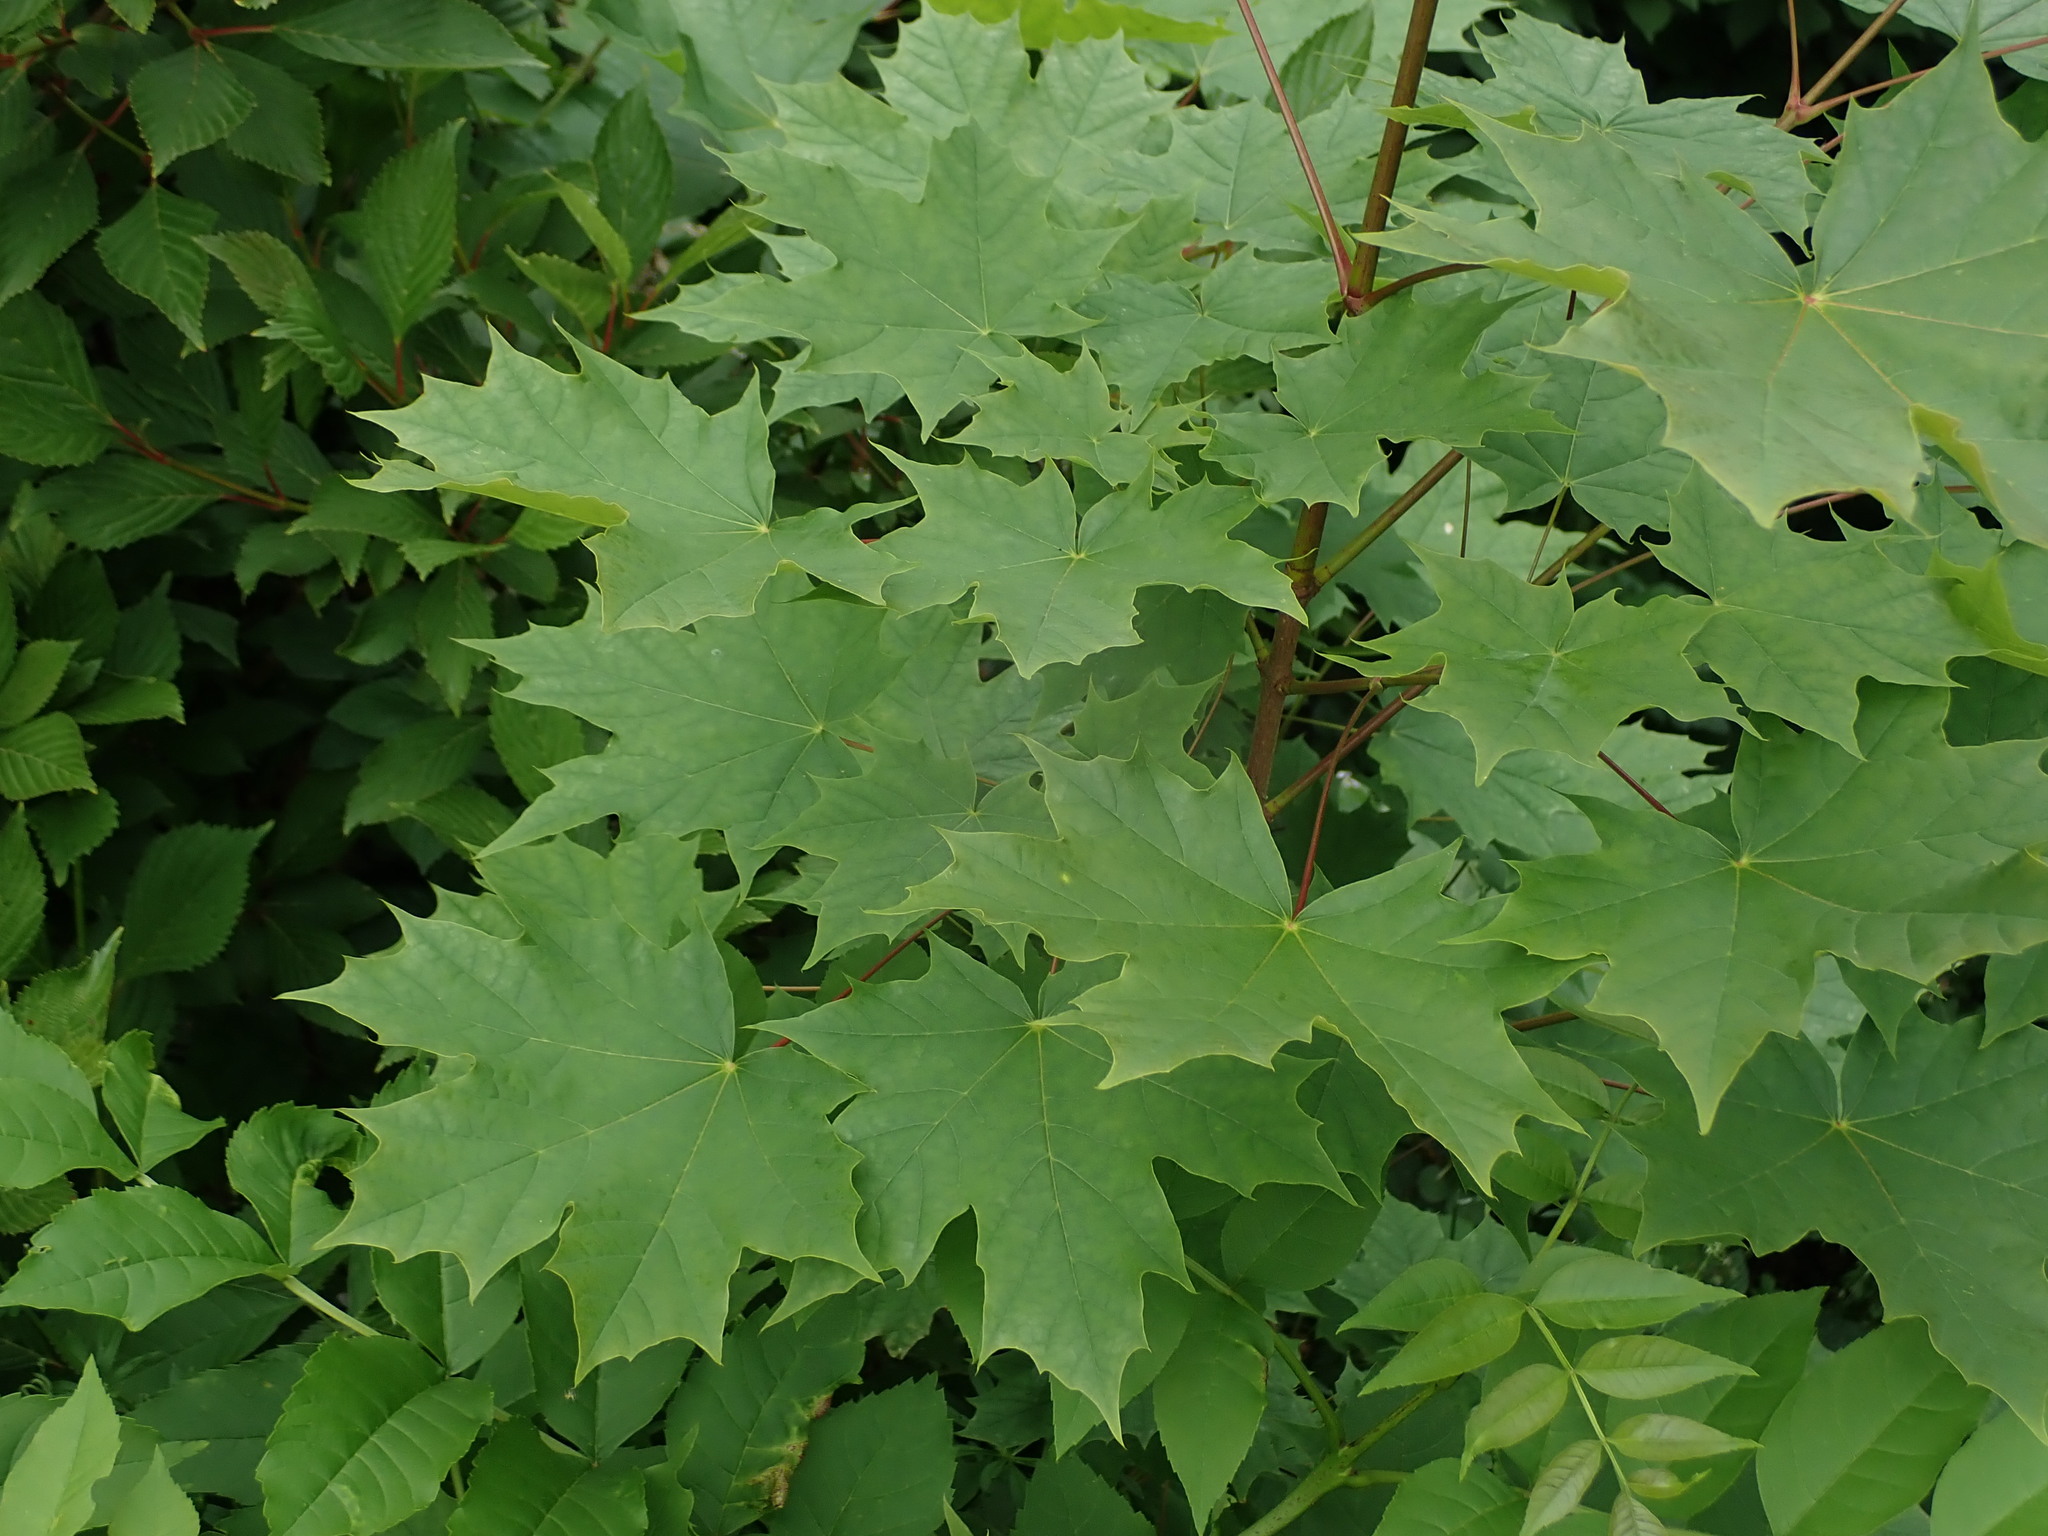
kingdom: Plantae
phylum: Tracheophyta
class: Magnoliopsida
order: Sapindales
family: Sapindaceae
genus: Acer
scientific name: Acer platanoides
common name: Norway maple
